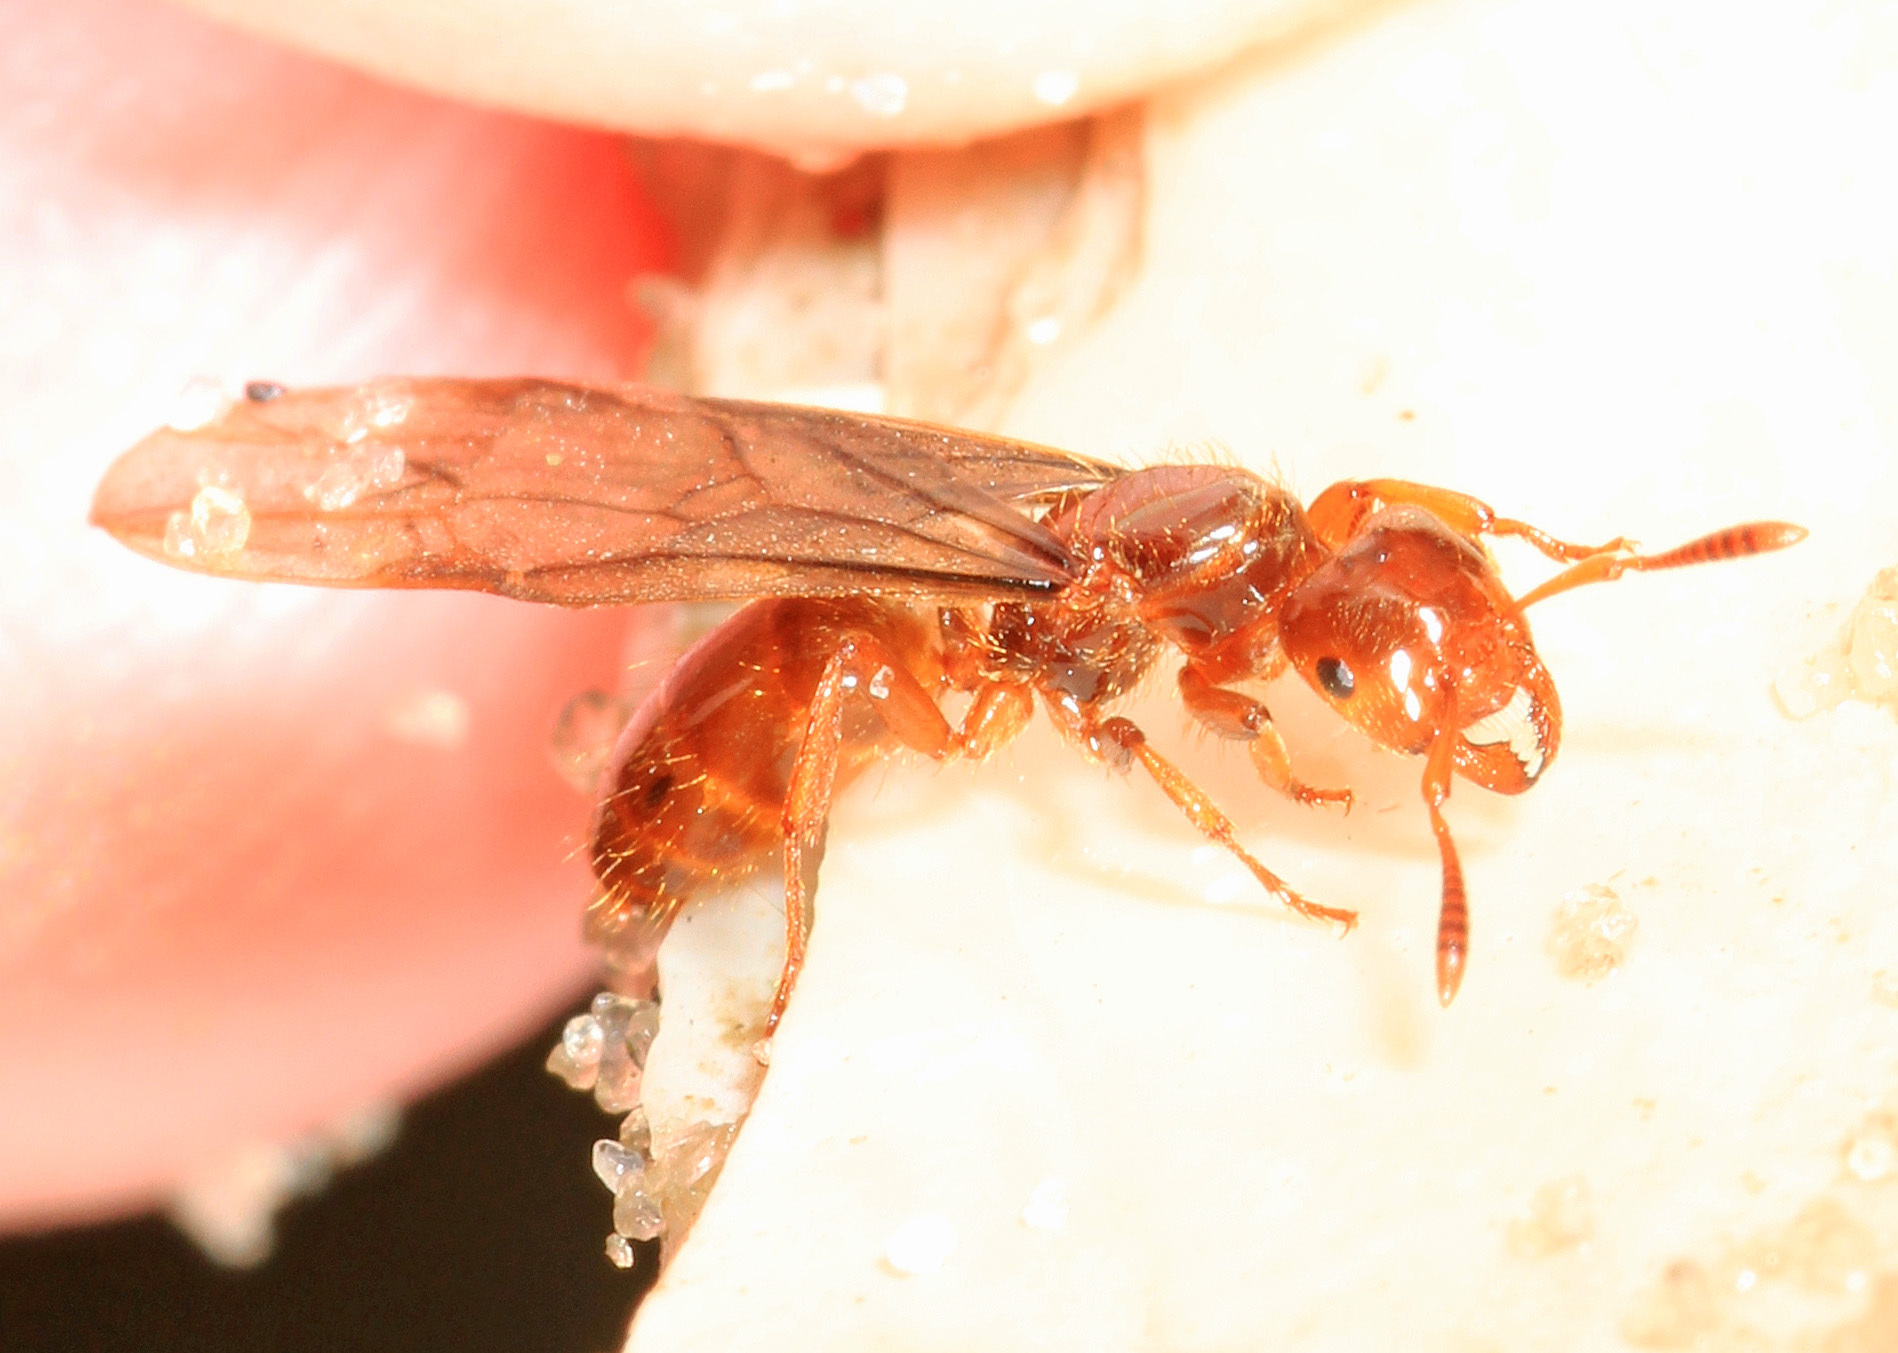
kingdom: Animalia
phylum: Arthropoda
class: Insecta
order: Hymenoptera
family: Formicidae
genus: Lasius
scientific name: Lasius claviger
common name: Common citronella ant
